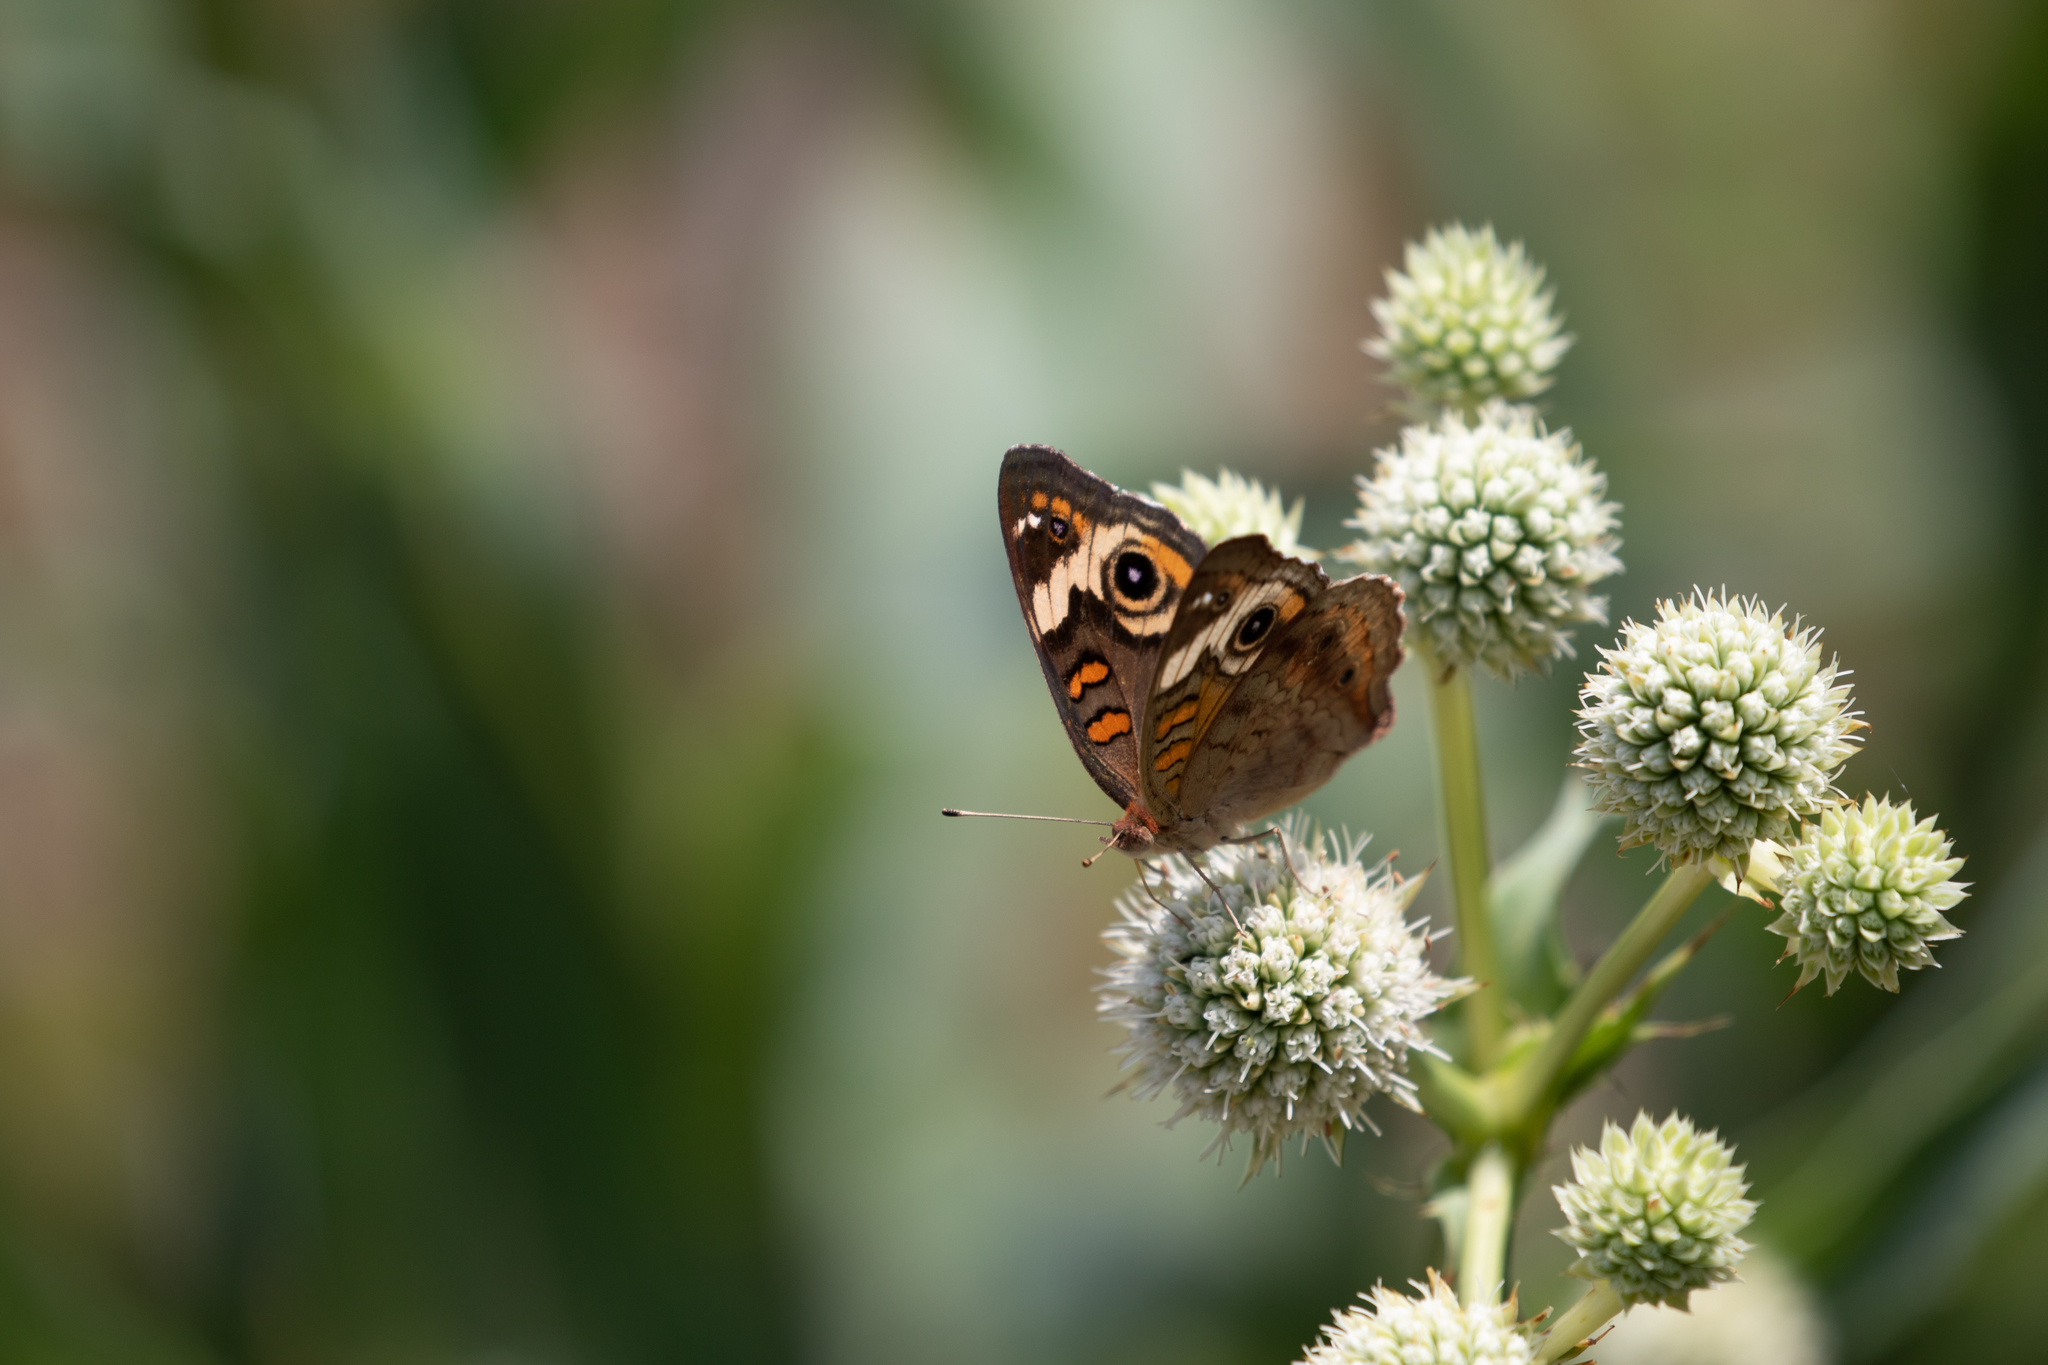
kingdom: Animalia
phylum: Arthropoda
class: Insecta
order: Lepidoptera
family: Nymphalidae
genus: Junonia
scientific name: Junonia coenia
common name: Common buckeye
